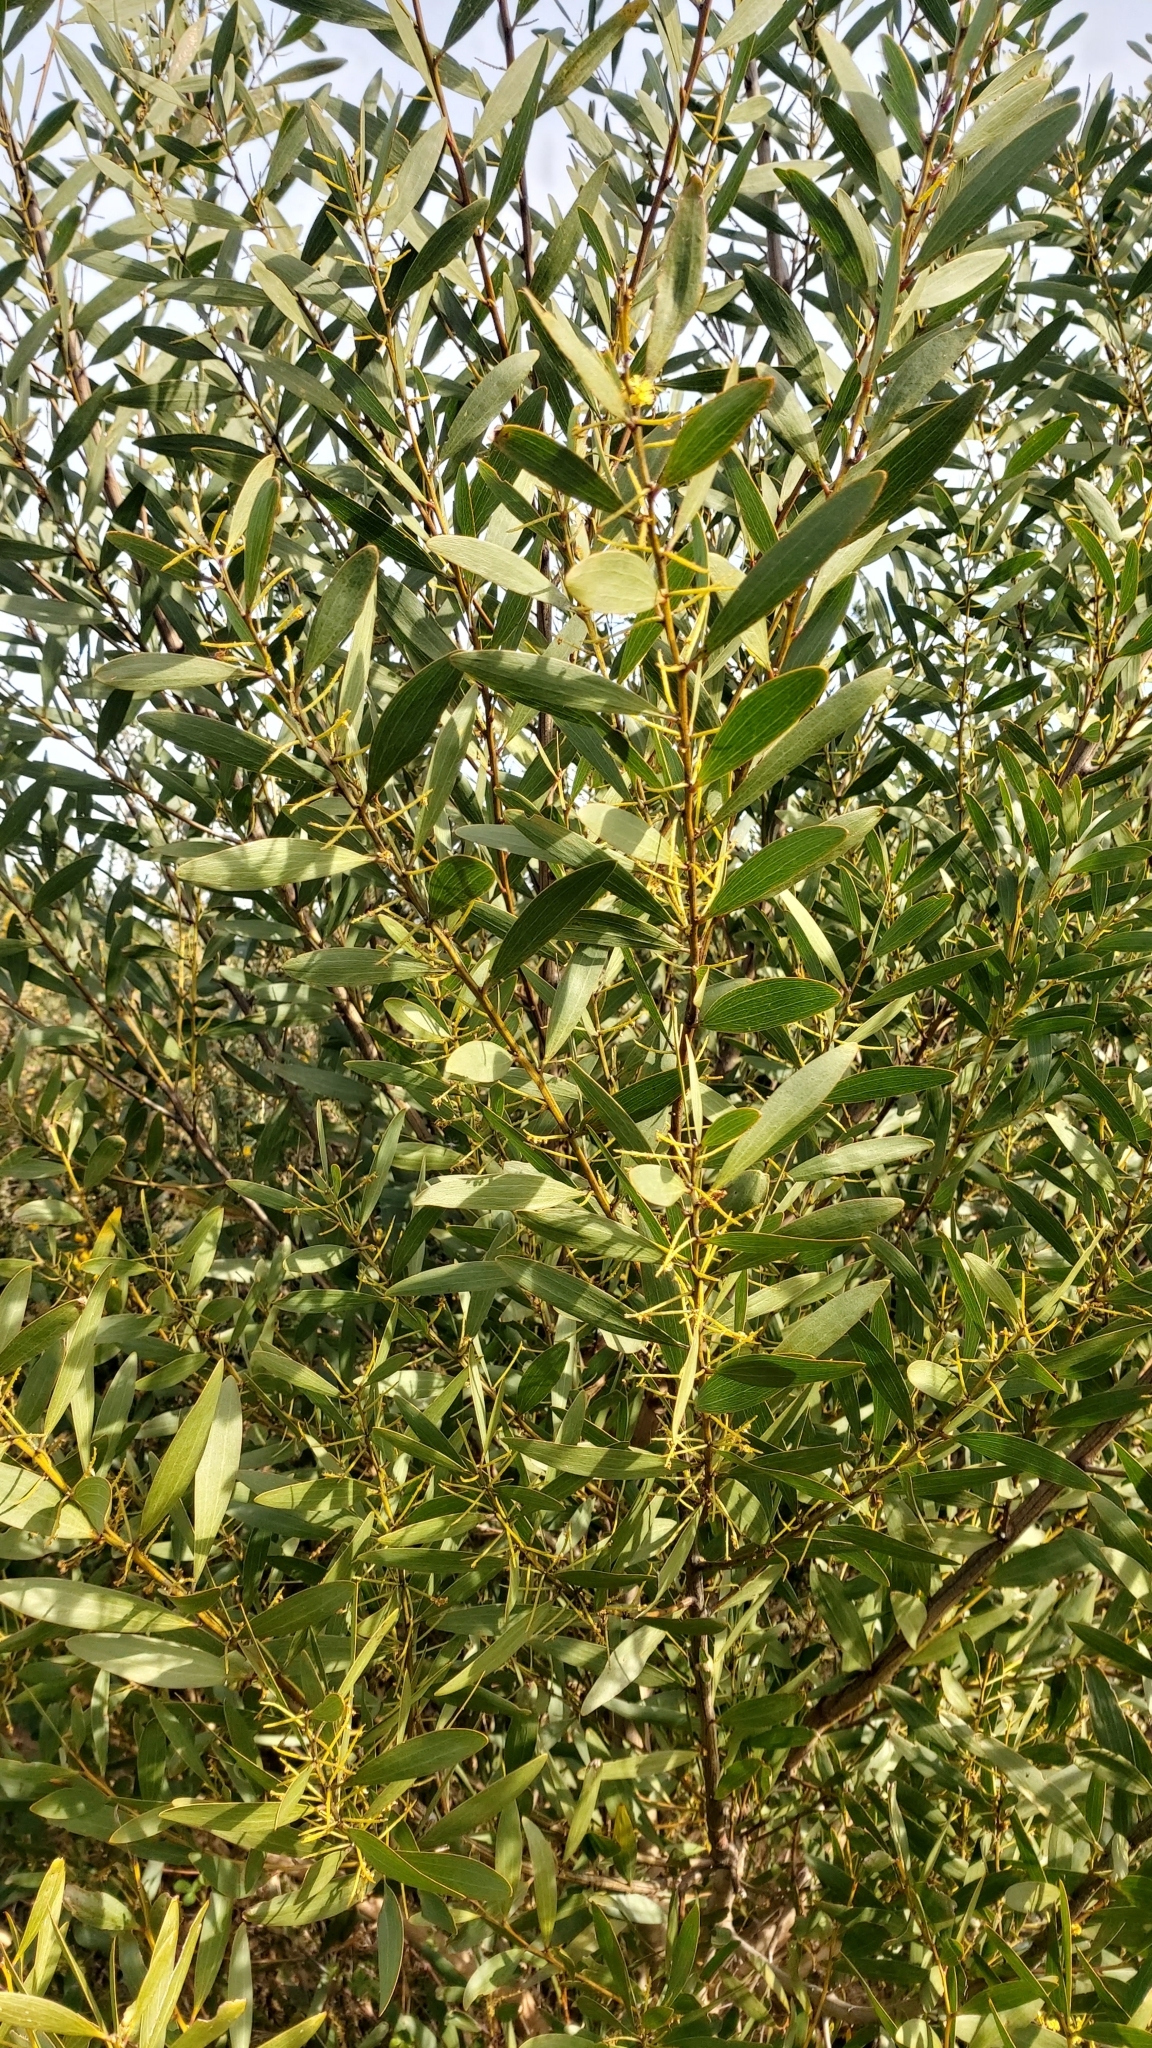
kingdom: Plantae
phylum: Tracheophyta
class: Magnoliopsida
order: Fabales
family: Fabaceae
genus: Acacia
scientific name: Acacia longifolia
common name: Sydney golden wattle
